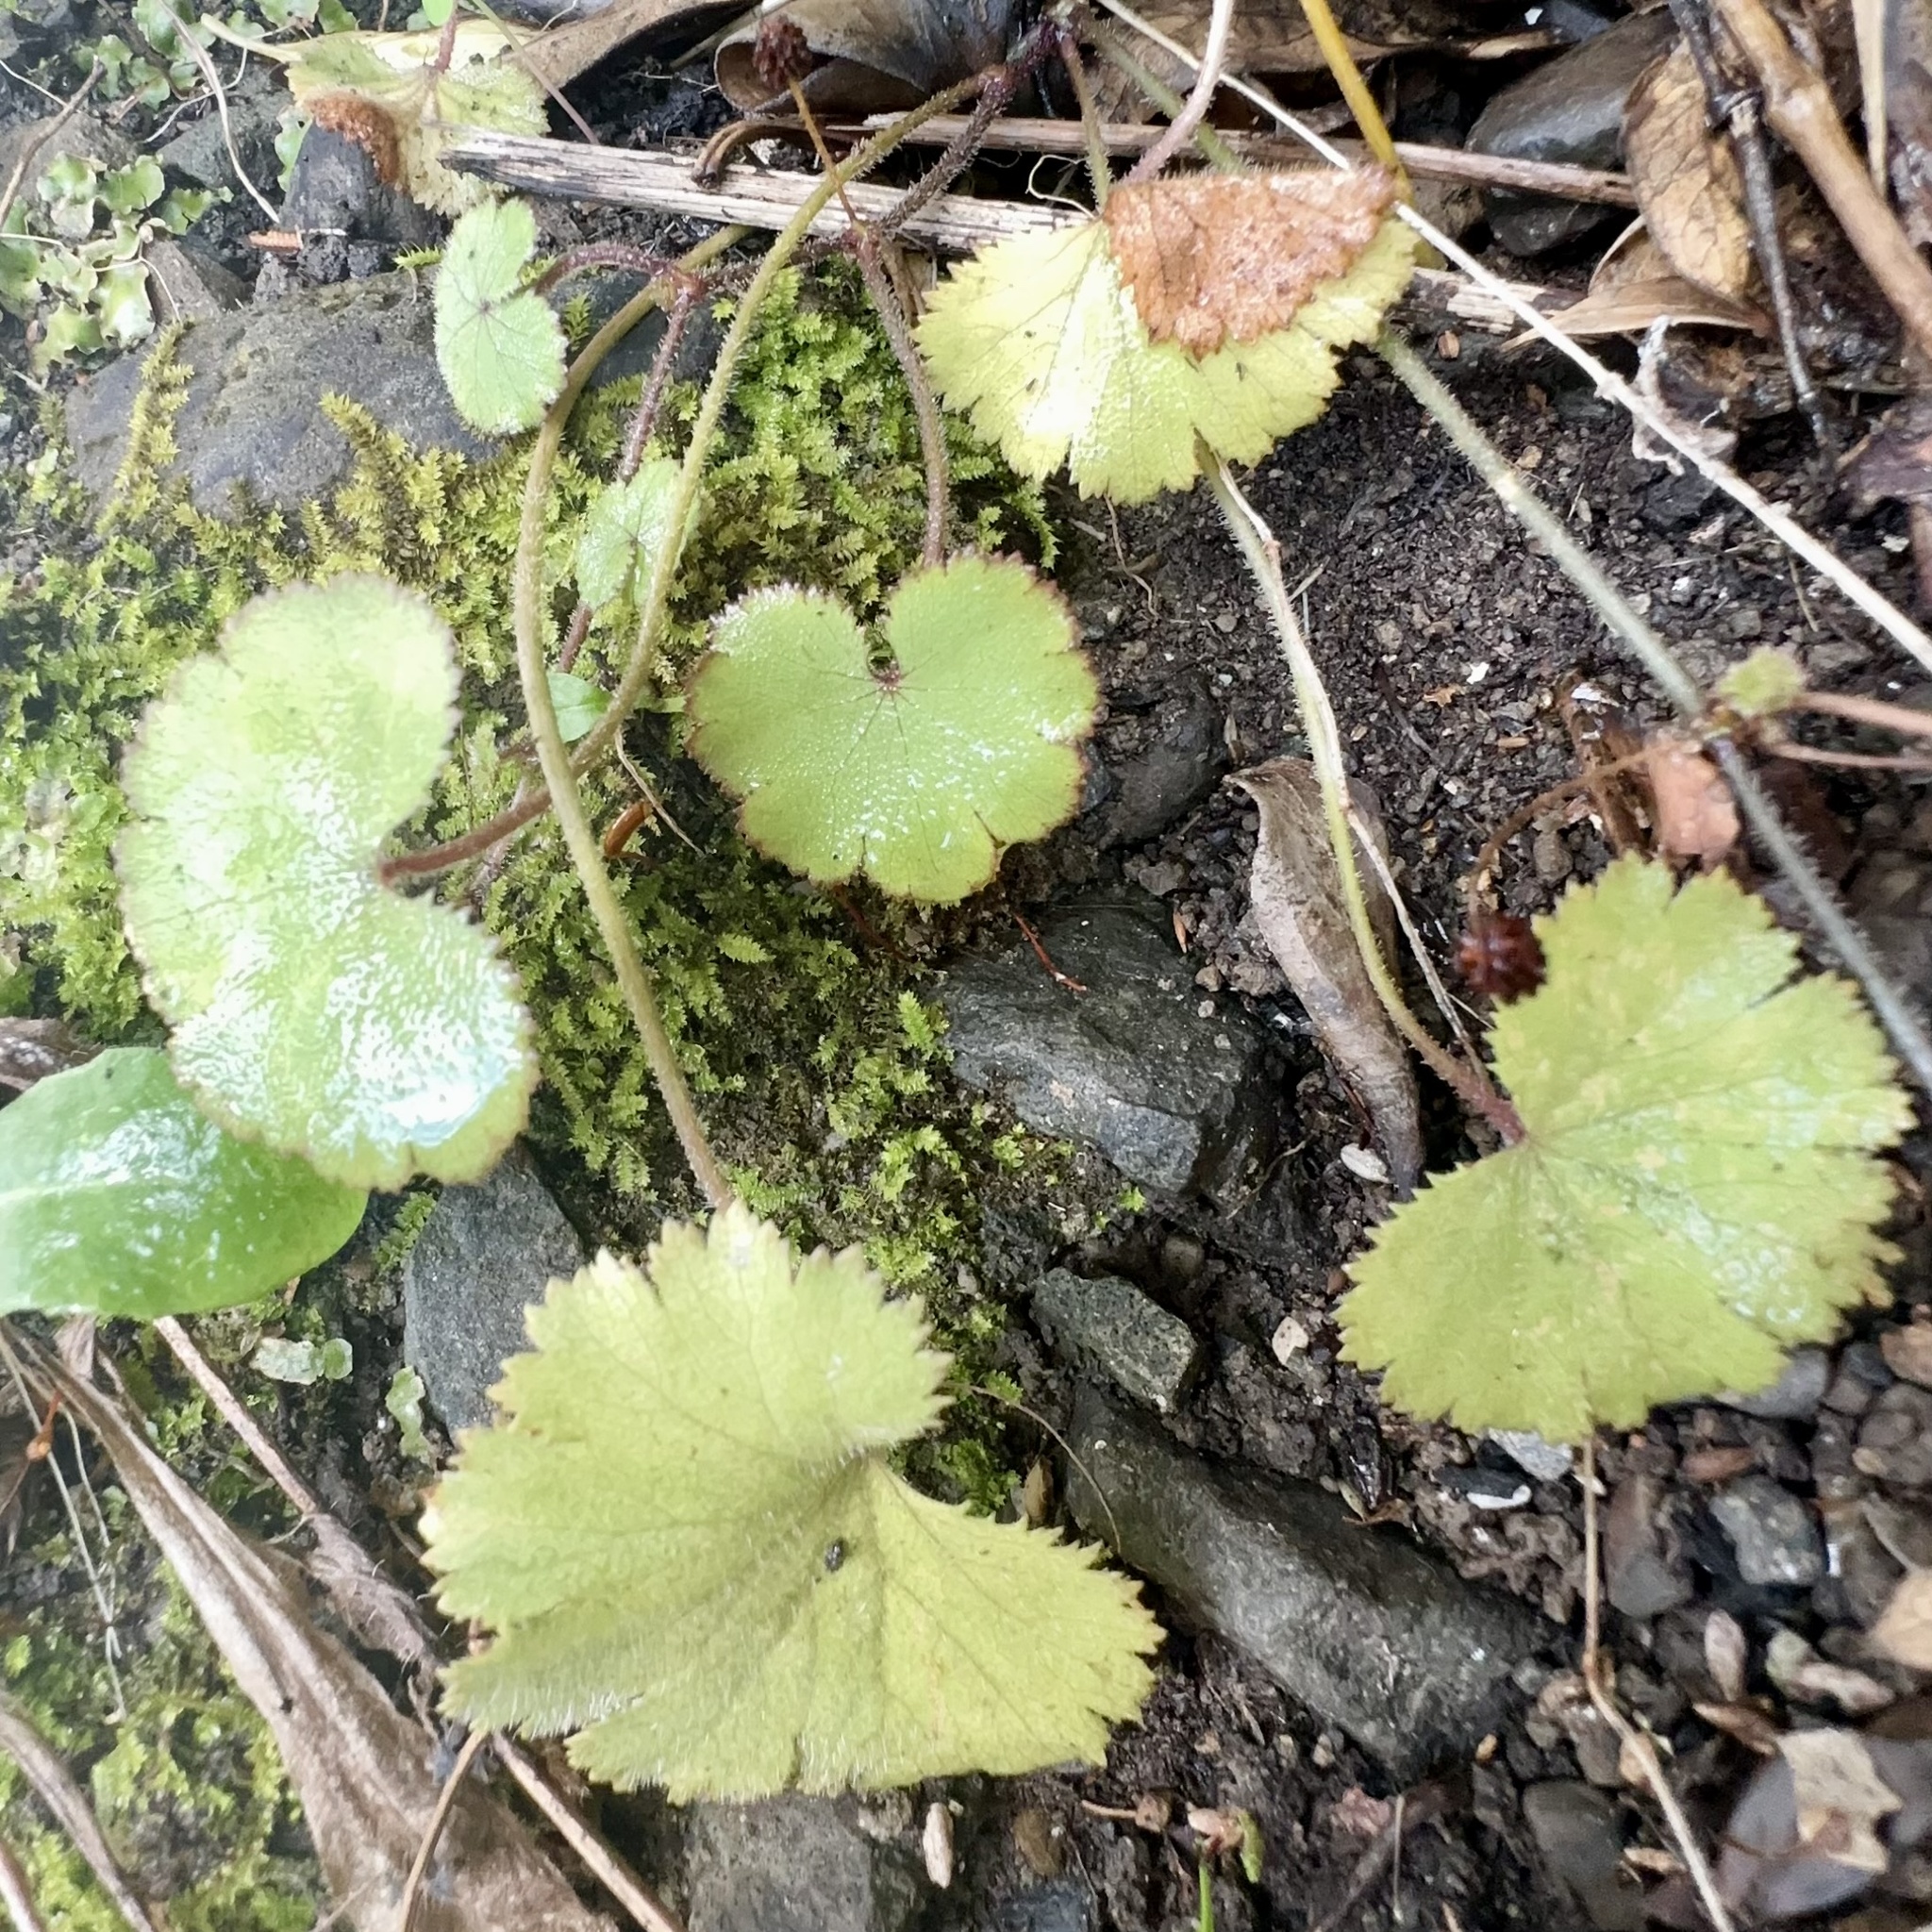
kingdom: Plantae
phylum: Tracheophyta
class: Magnoliopsida
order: Apiales
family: Araliaceae
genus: Hydrocotyle
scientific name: Hydrocotyle moschata
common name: Hairy pennywort
